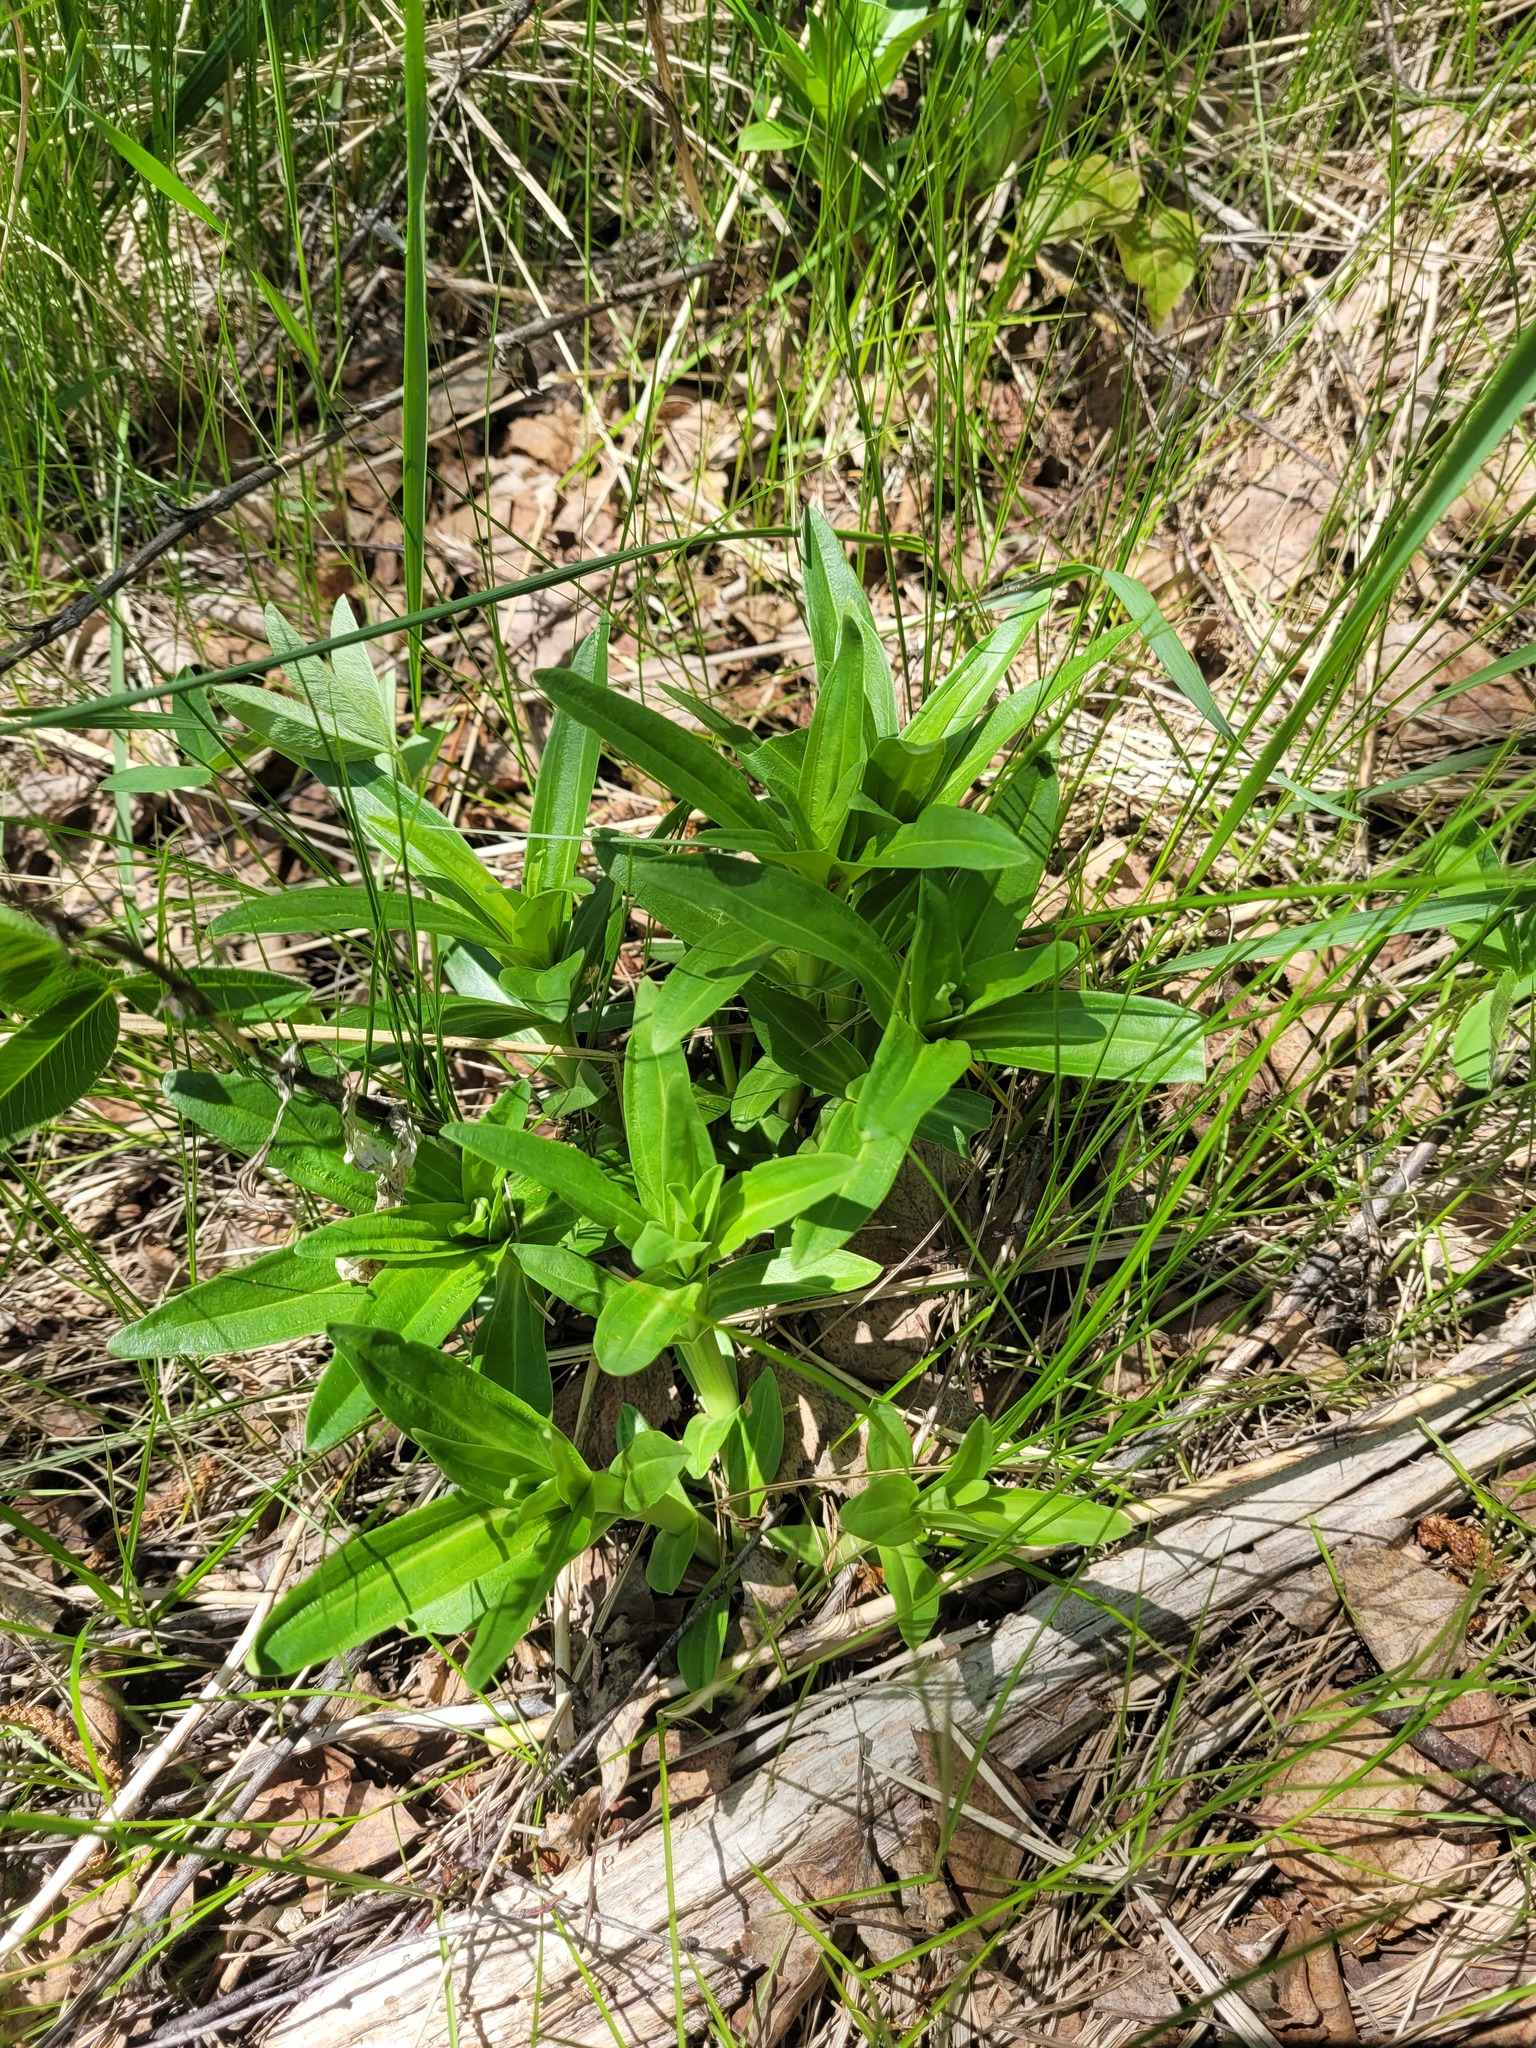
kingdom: Plantae
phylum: Tracheophyta
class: Magnoliopsida
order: Gentianales
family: Gentianaceae
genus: Gentiana
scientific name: Gentiana cruciata
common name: Cross gentian
